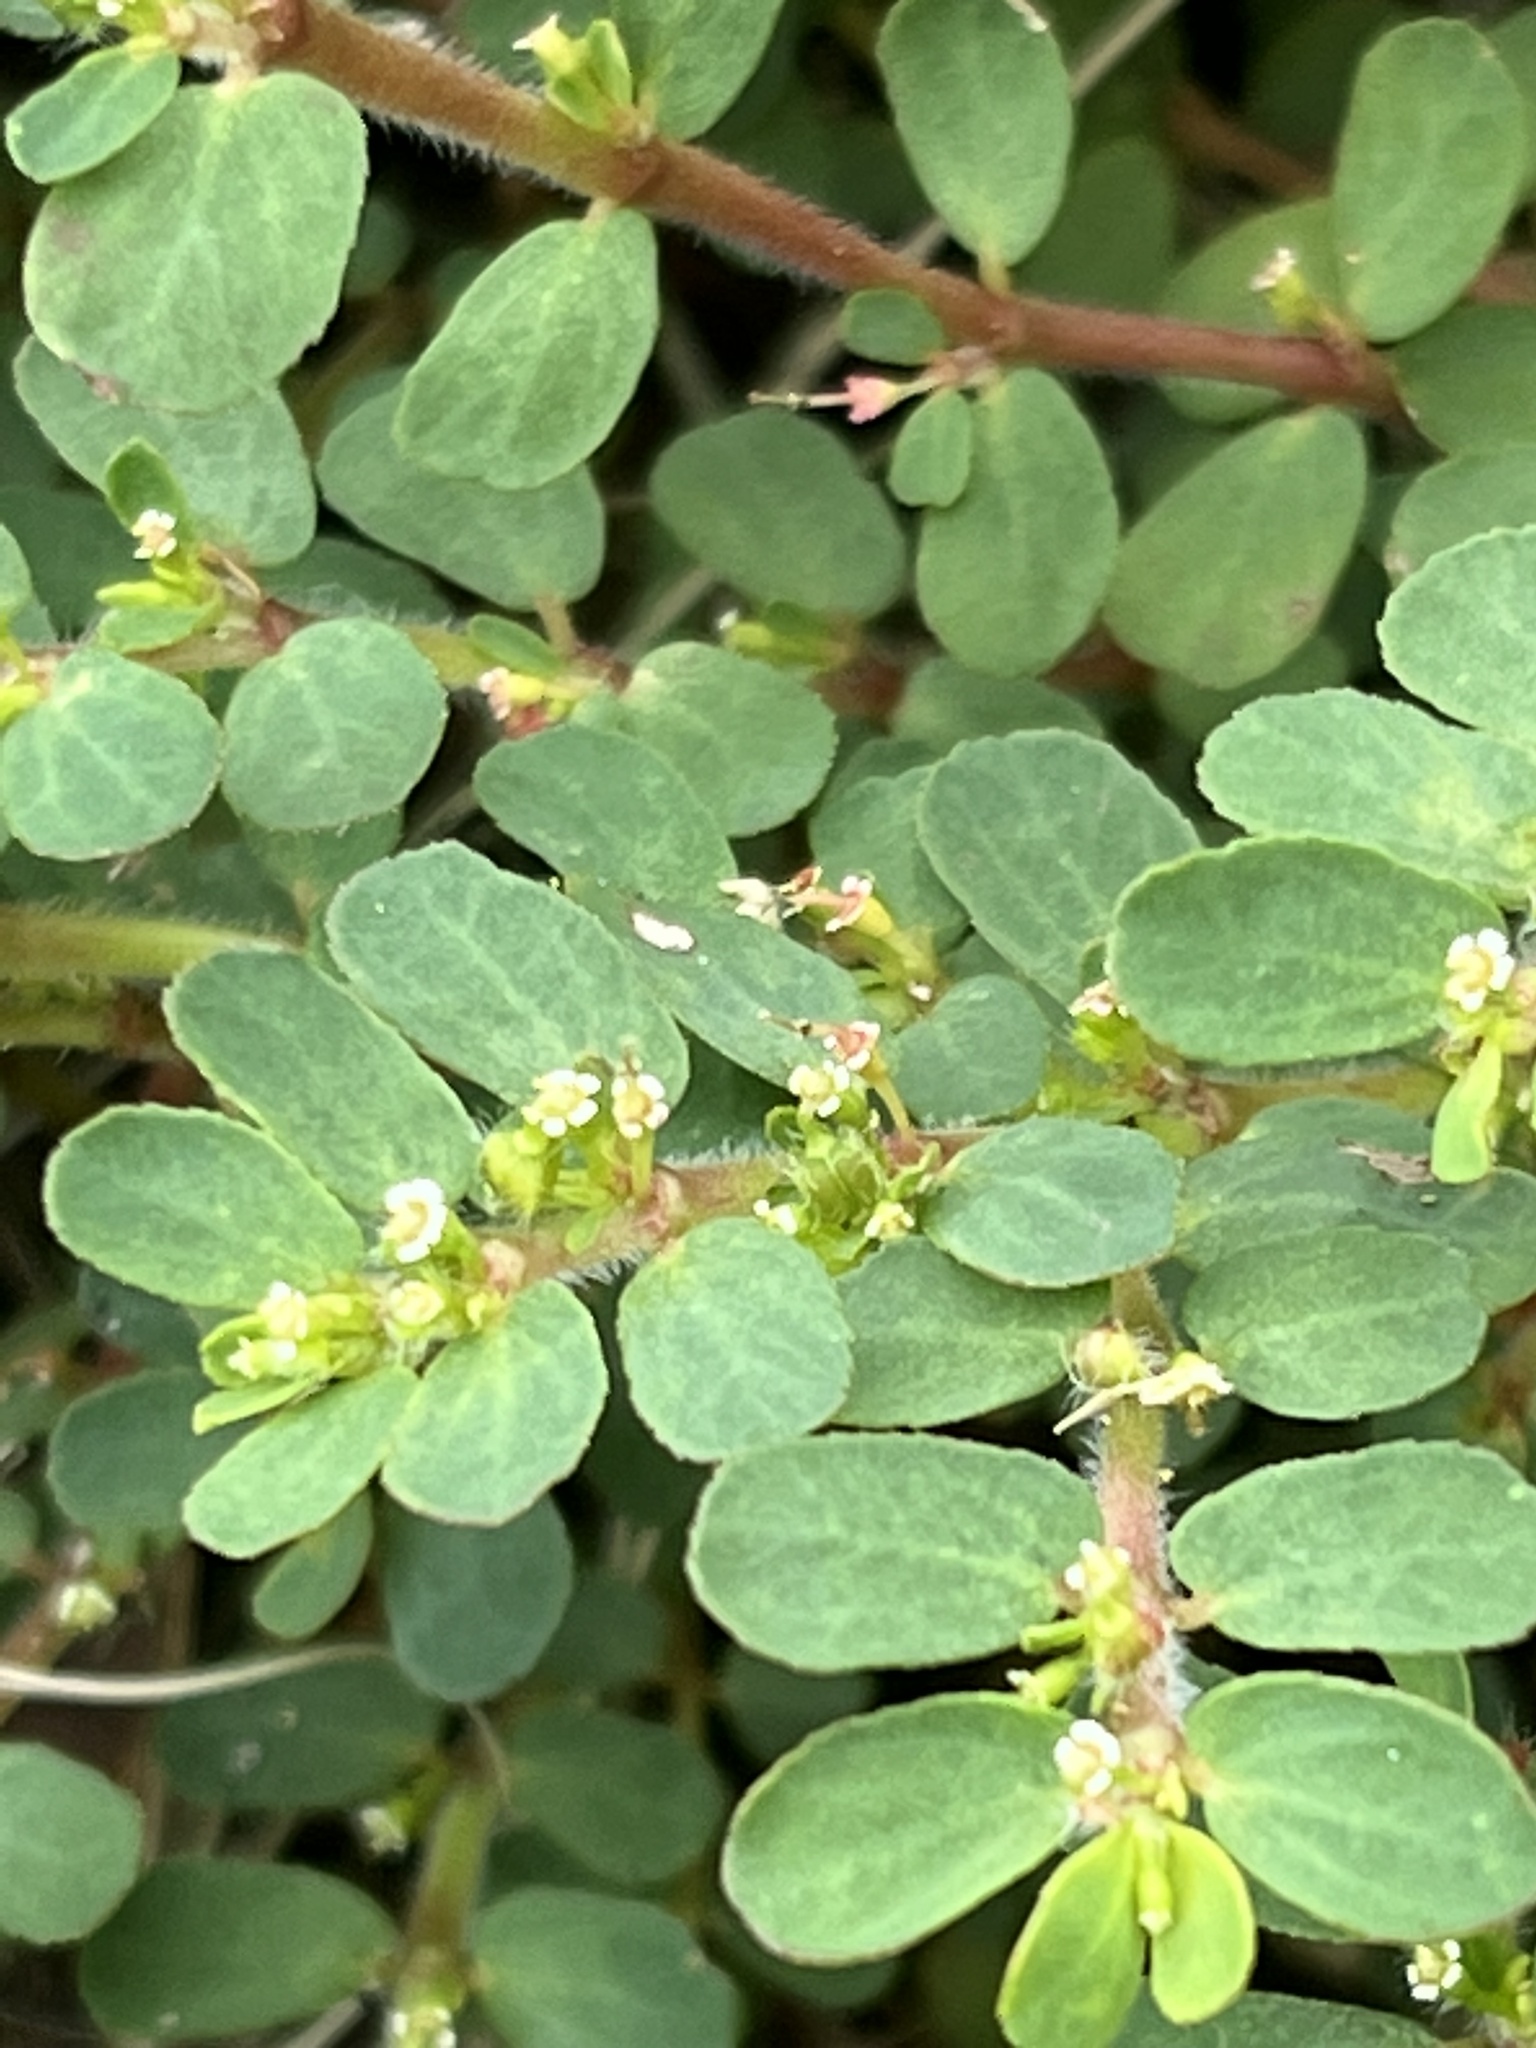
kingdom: Plantae
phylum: Tracheophyta
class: Magnoliopsida
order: Malpighiales
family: Euphorbiaceae
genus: Euphorbia
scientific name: Euphorbia mendezii
